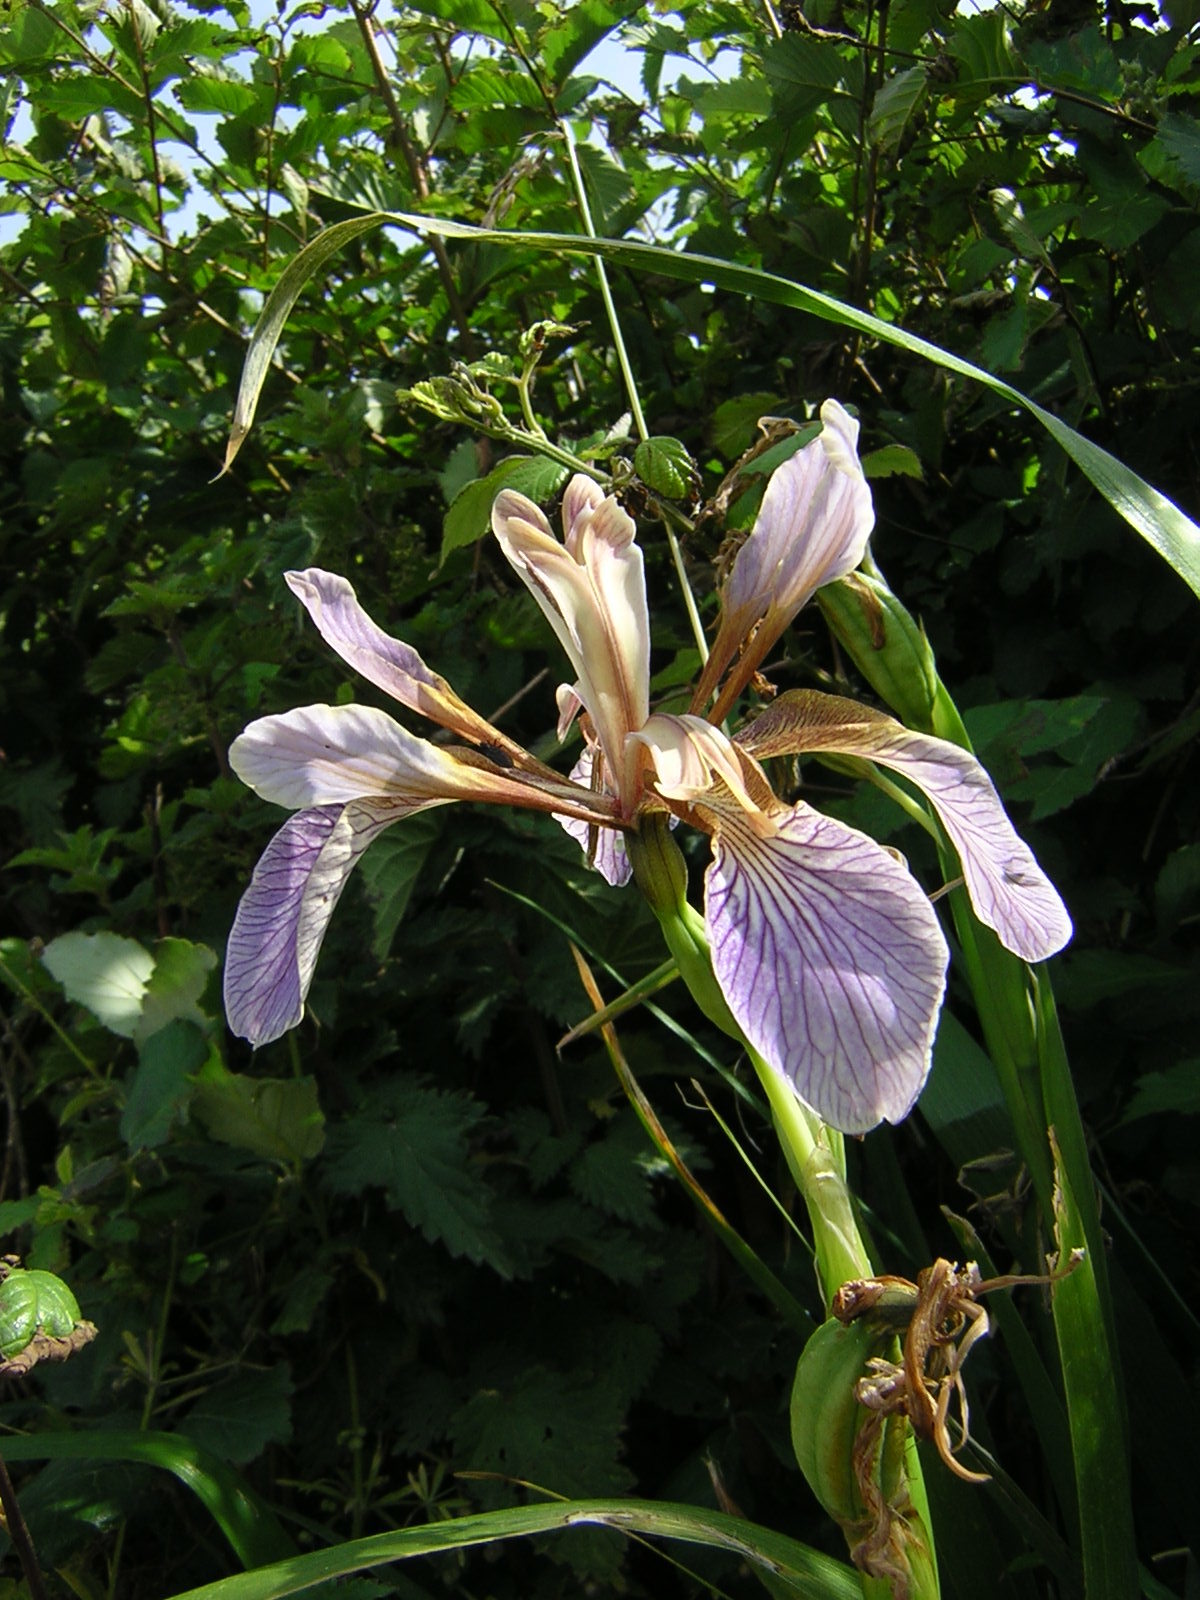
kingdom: Plantae
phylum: Tracheophyta
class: Liliopsida
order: Asparagales
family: Iridaceae
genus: Iris
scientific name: Iris foetidissima
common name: Stinking iris
